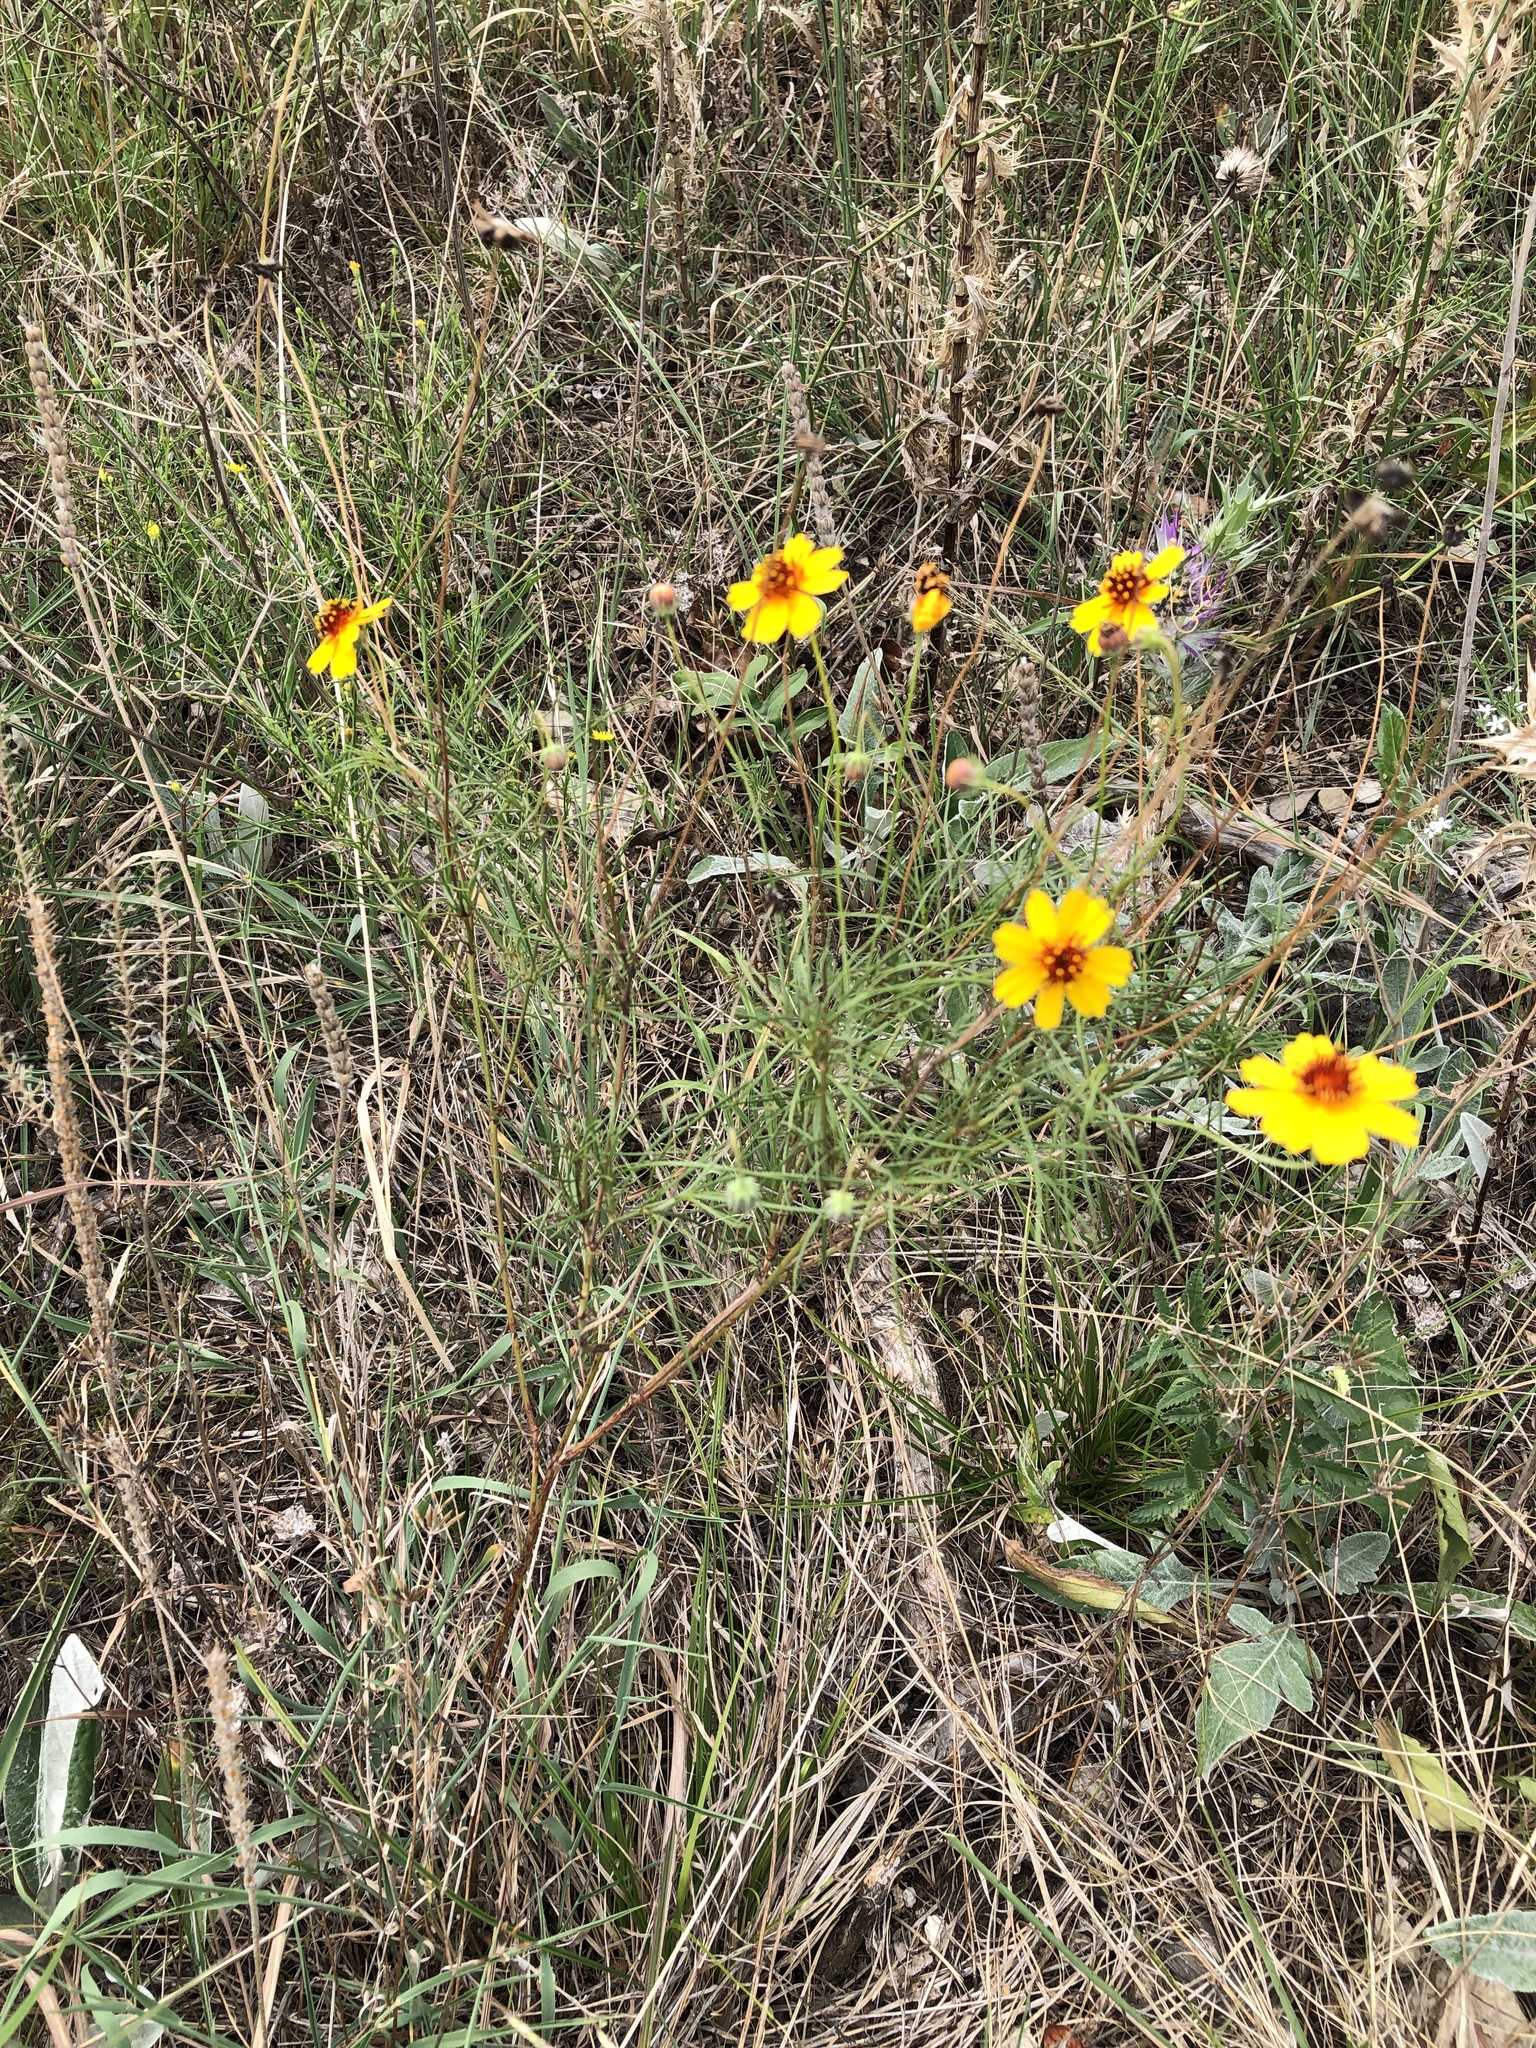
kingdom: Plantae
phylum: Tracheophyta
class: Magnoliopsida
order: Asterales
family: Asteraceae
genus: Thelesperma
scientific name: Thelesperma filifolium
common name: Stiff greenthread
